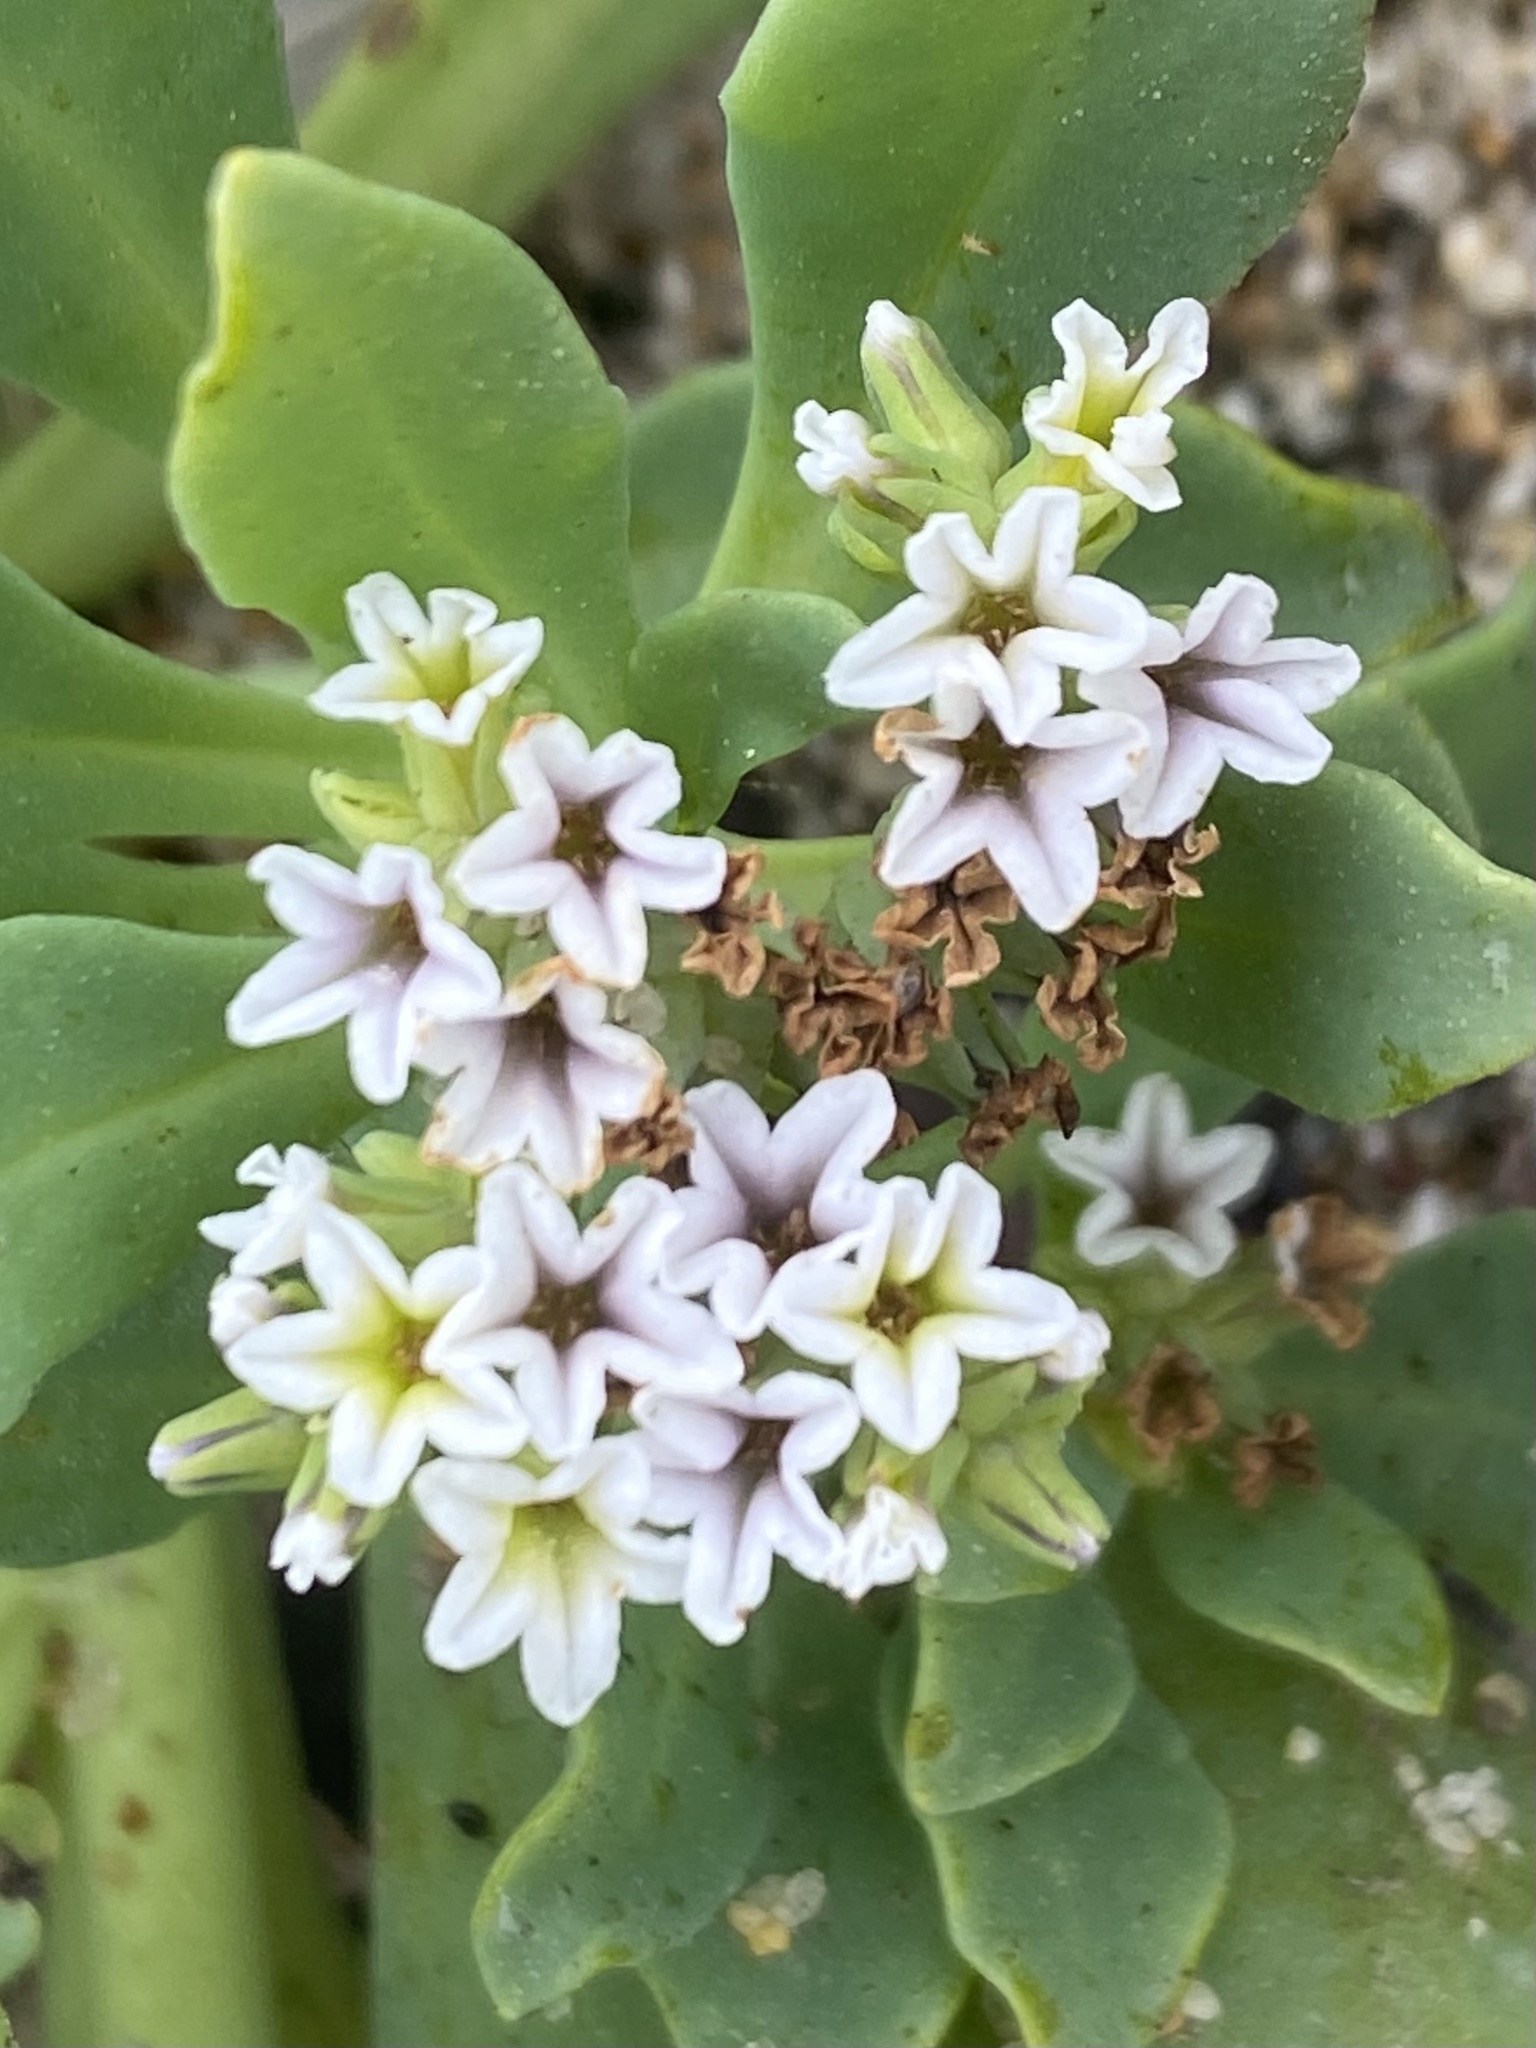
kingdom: Plantae
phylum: Tracheophyta
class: Magnoliopsida
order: Boraginales
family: Heliotropiaceae
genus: Heliotropium
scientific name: Heliotropium curassavicum
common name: Seaside heliotrope
